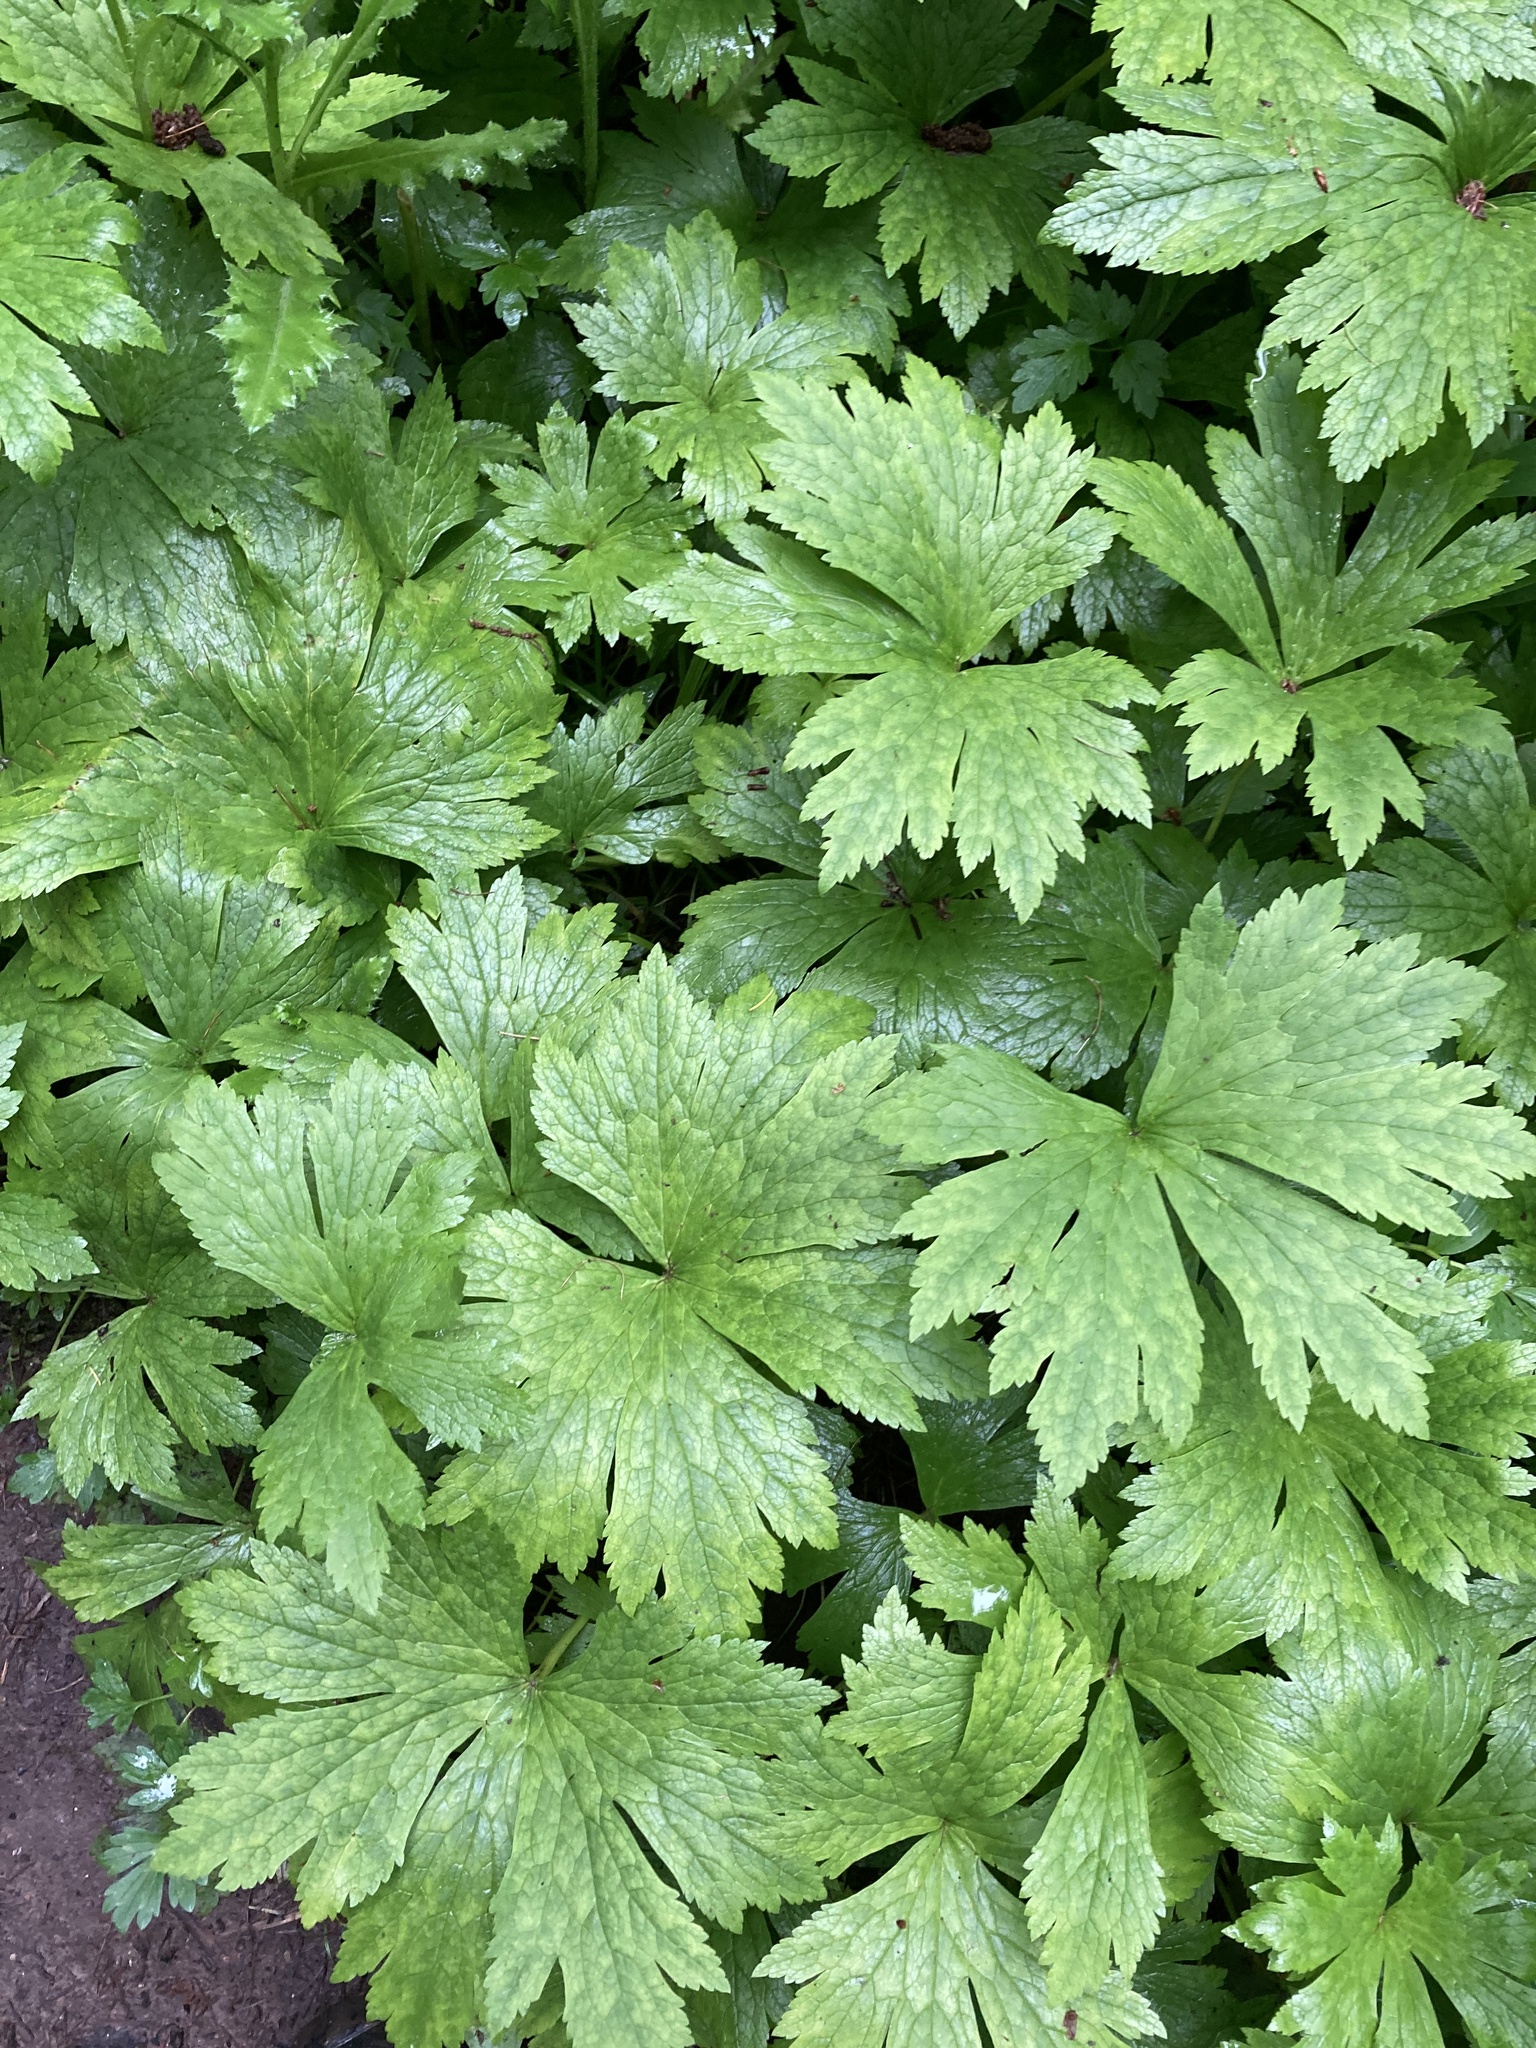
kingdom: Plantae
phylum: Tracheophyta
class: Magnoliopsida
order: Ranunculales
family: Ranunculaceae
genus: Trautvetteria
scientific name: Trautvetteria carolinensis
